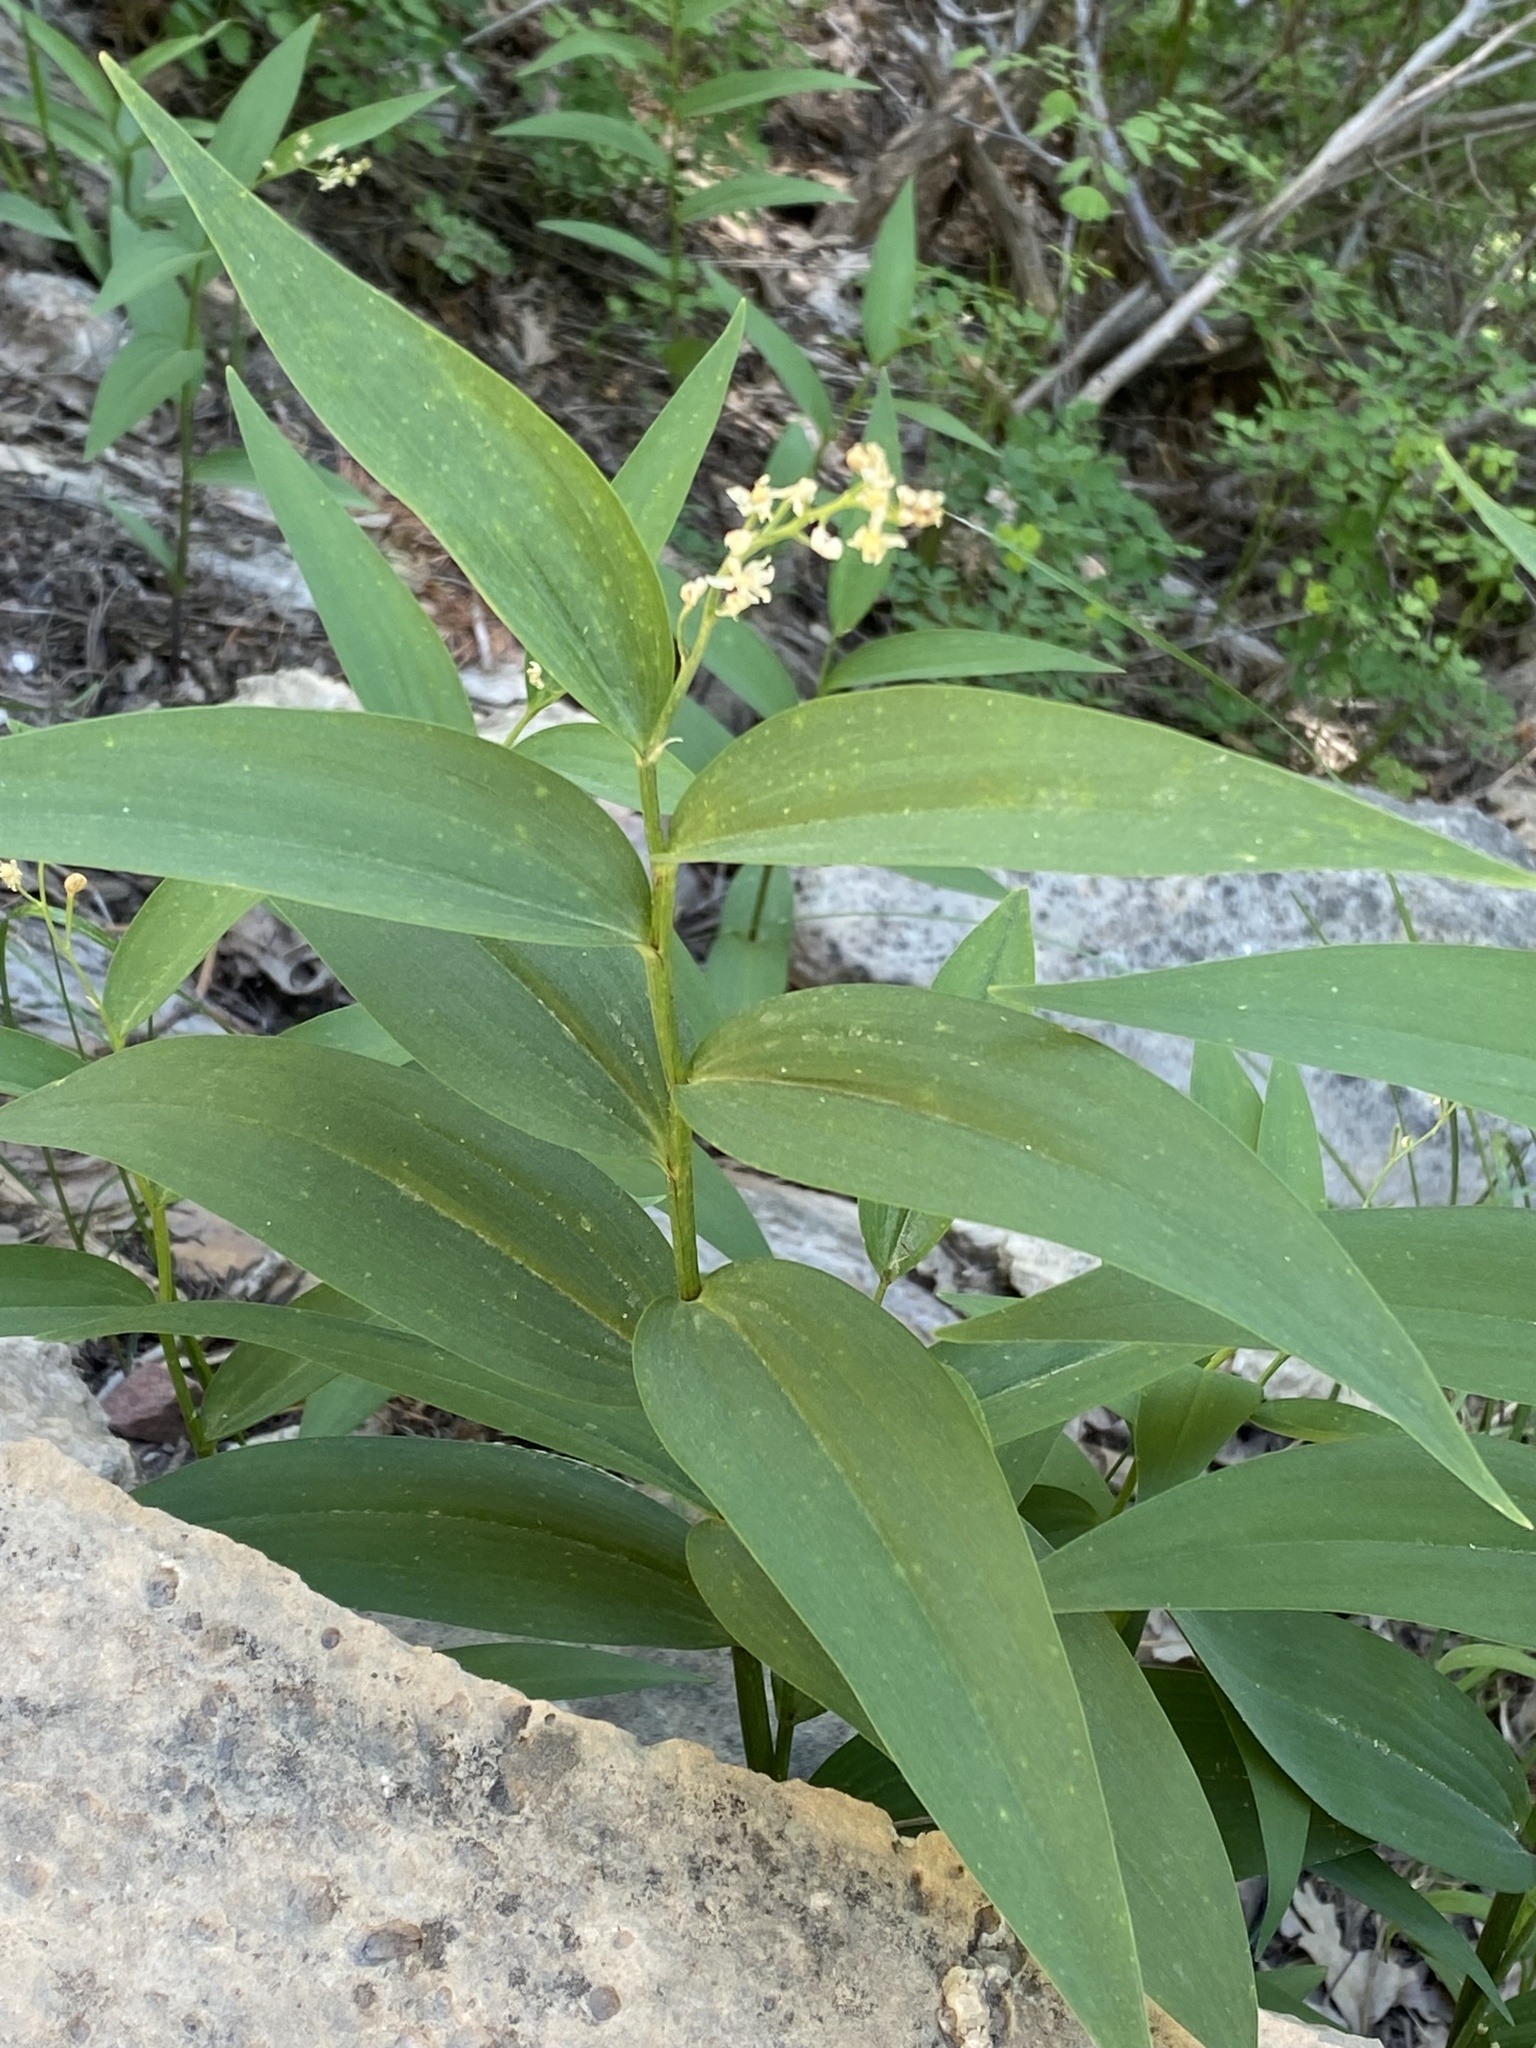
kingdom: Plantae
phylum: Tracheophyta
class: Liliopsida
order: Asparagales
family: Asparagaceae
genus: Maianthemum
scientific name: Maianthemum stellatum
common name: Little false solomon's seal
